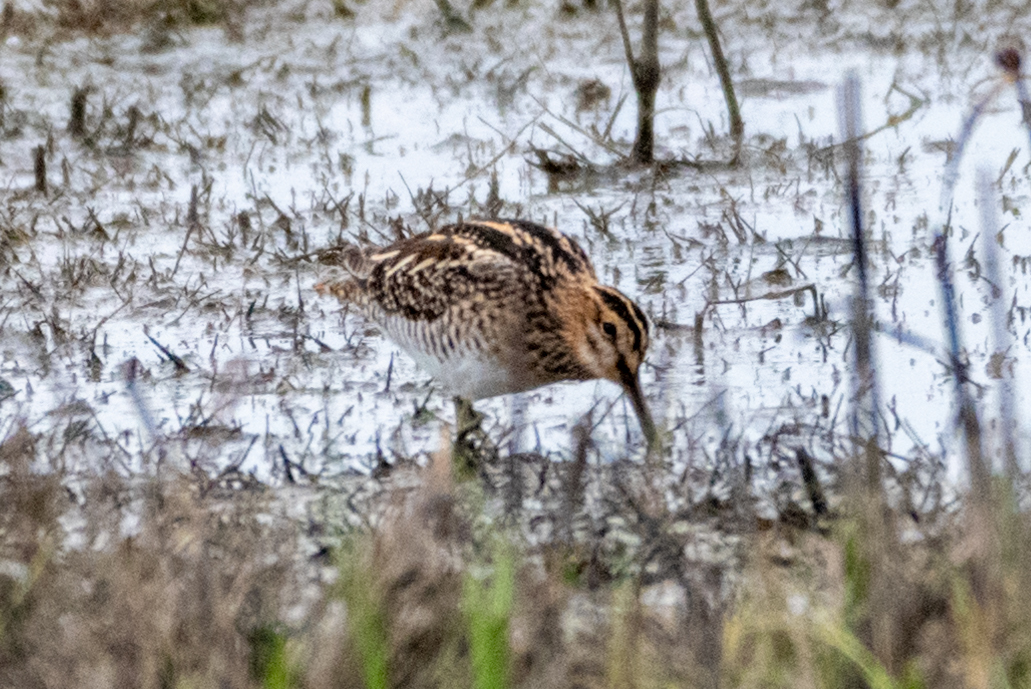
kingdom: Animalia
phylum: Chordata
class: Aves
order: Charadriiformes
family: Scolopacidae
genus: Gallinago
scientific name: Gallinago delicata
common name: Wilson's snipe
